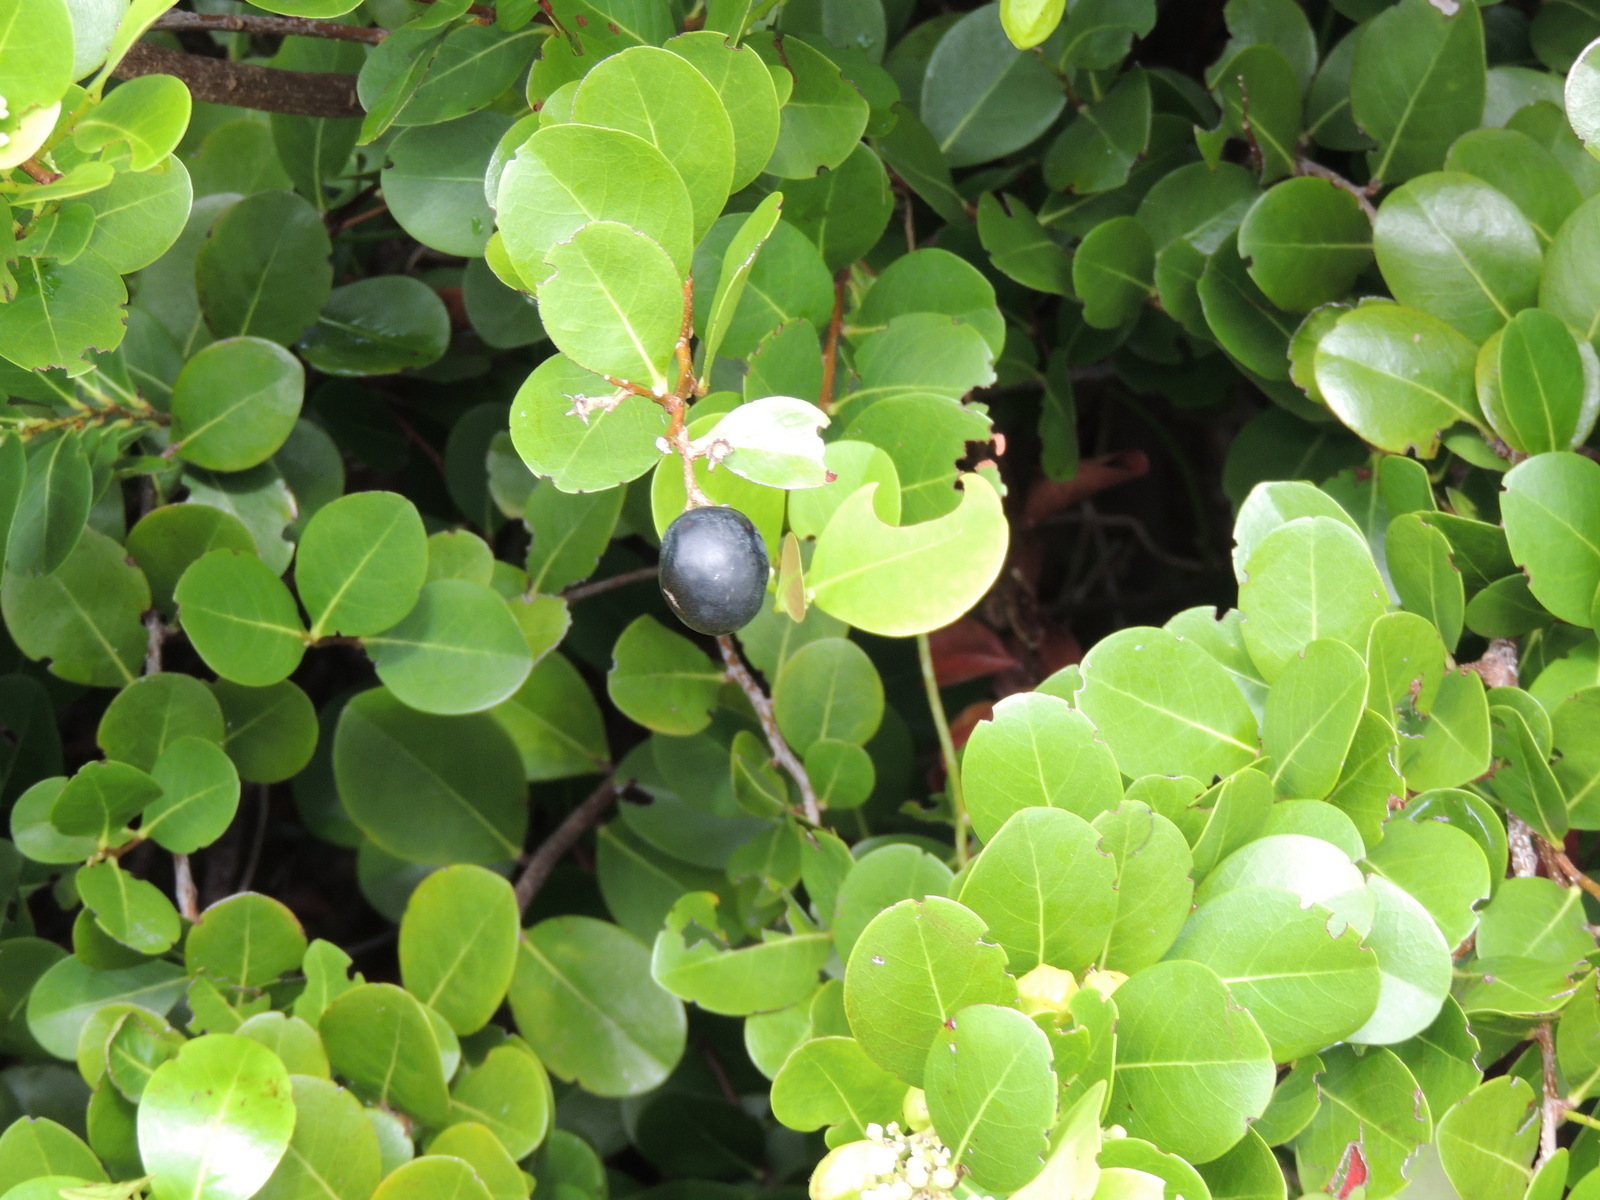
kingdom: Plantae
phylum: Tracheophyta
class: Magnoliopsida
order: Malpighiales
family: Chrysobalanaceae
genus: Chrysobalanus
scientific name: Chrysobalanus icaco
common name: Coco plum
